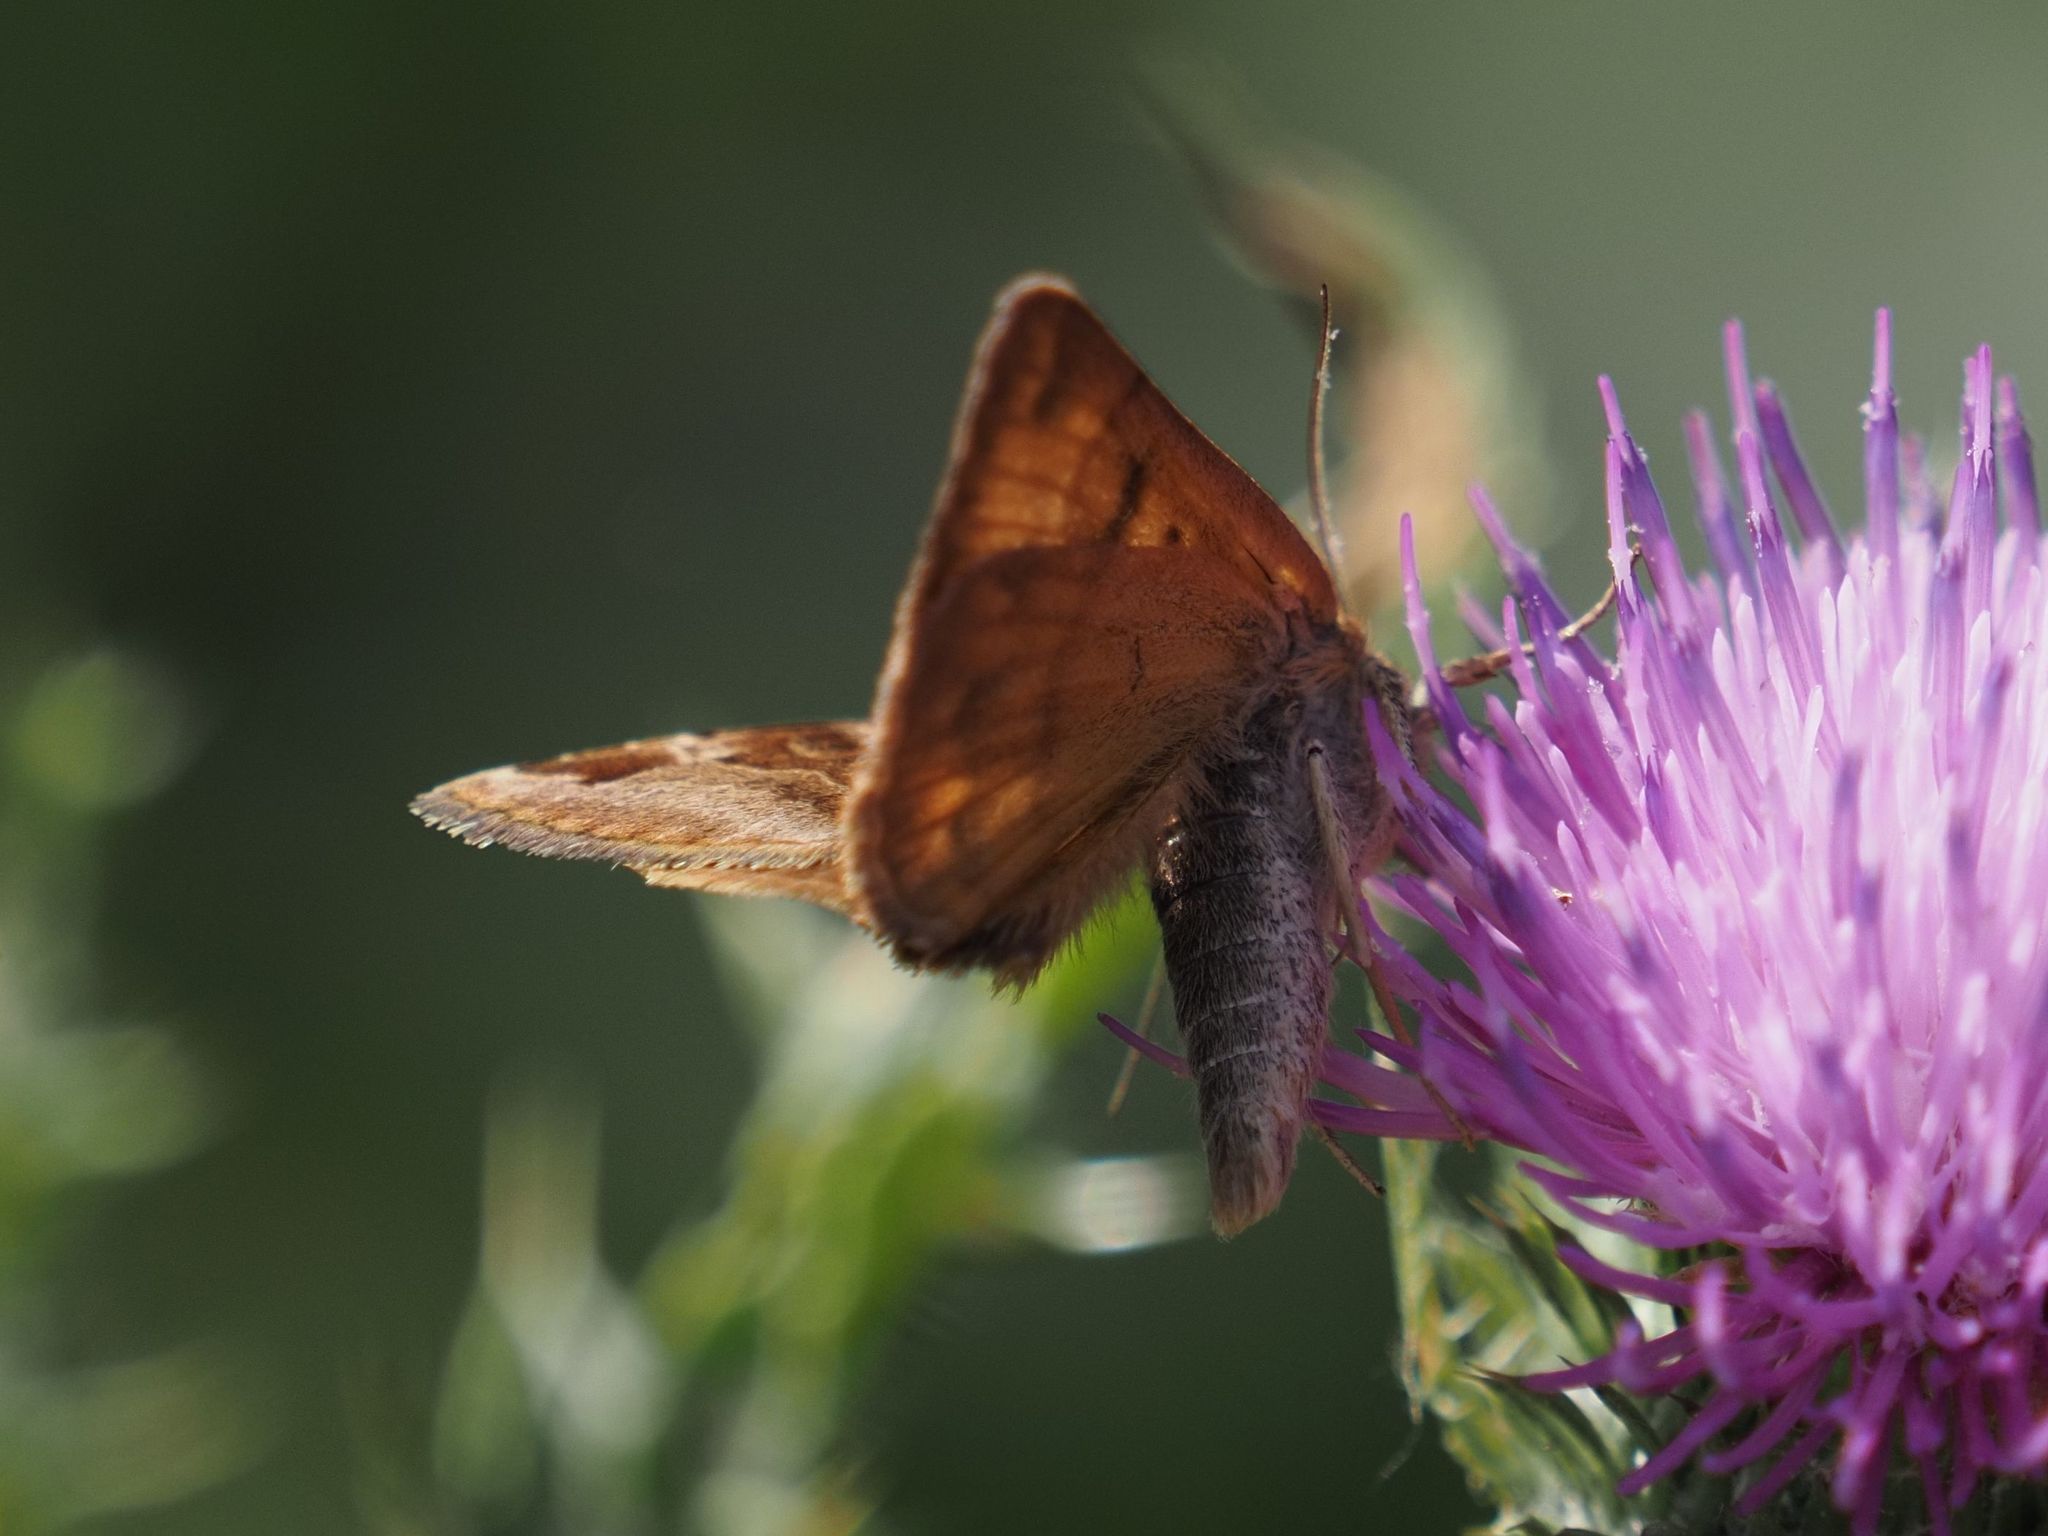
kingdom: Animalia
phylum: Arthropoda
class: Insecta
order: Lepidoptera
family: Erebidae
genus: Euclidia
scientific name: Euclidia glyphica
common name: Burnet companion
